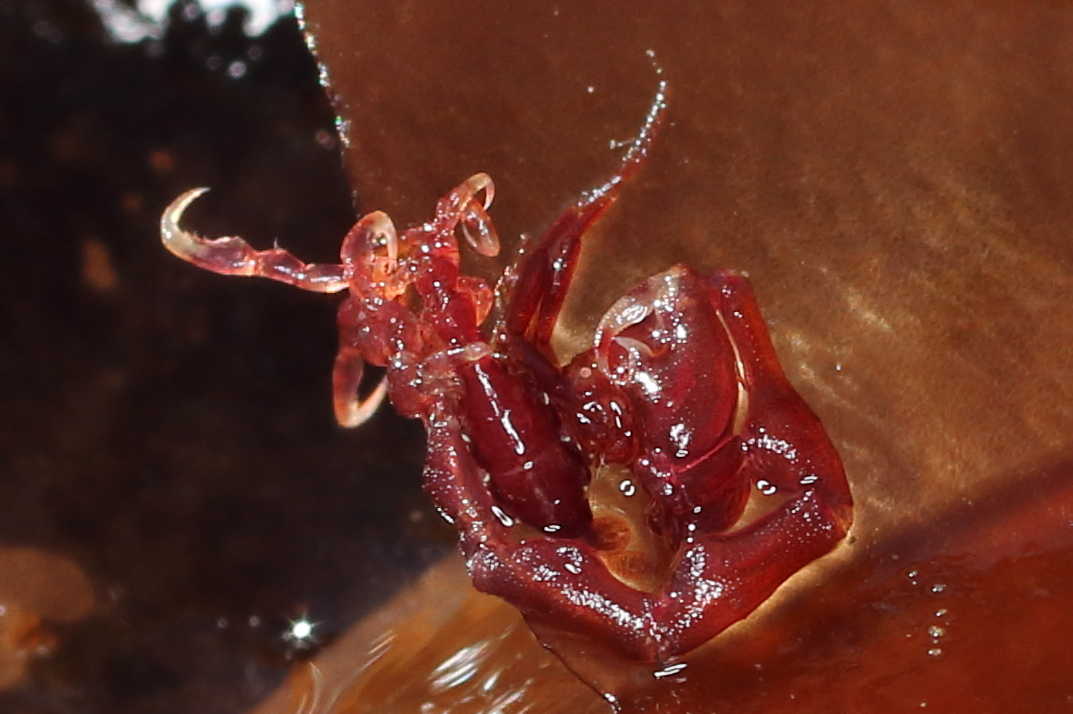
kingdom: Animalia
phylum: Arthropoda
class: Malacostraca
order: Amphipoda
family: Caprellidae
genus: Caprella
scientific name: Caprella alaskana
